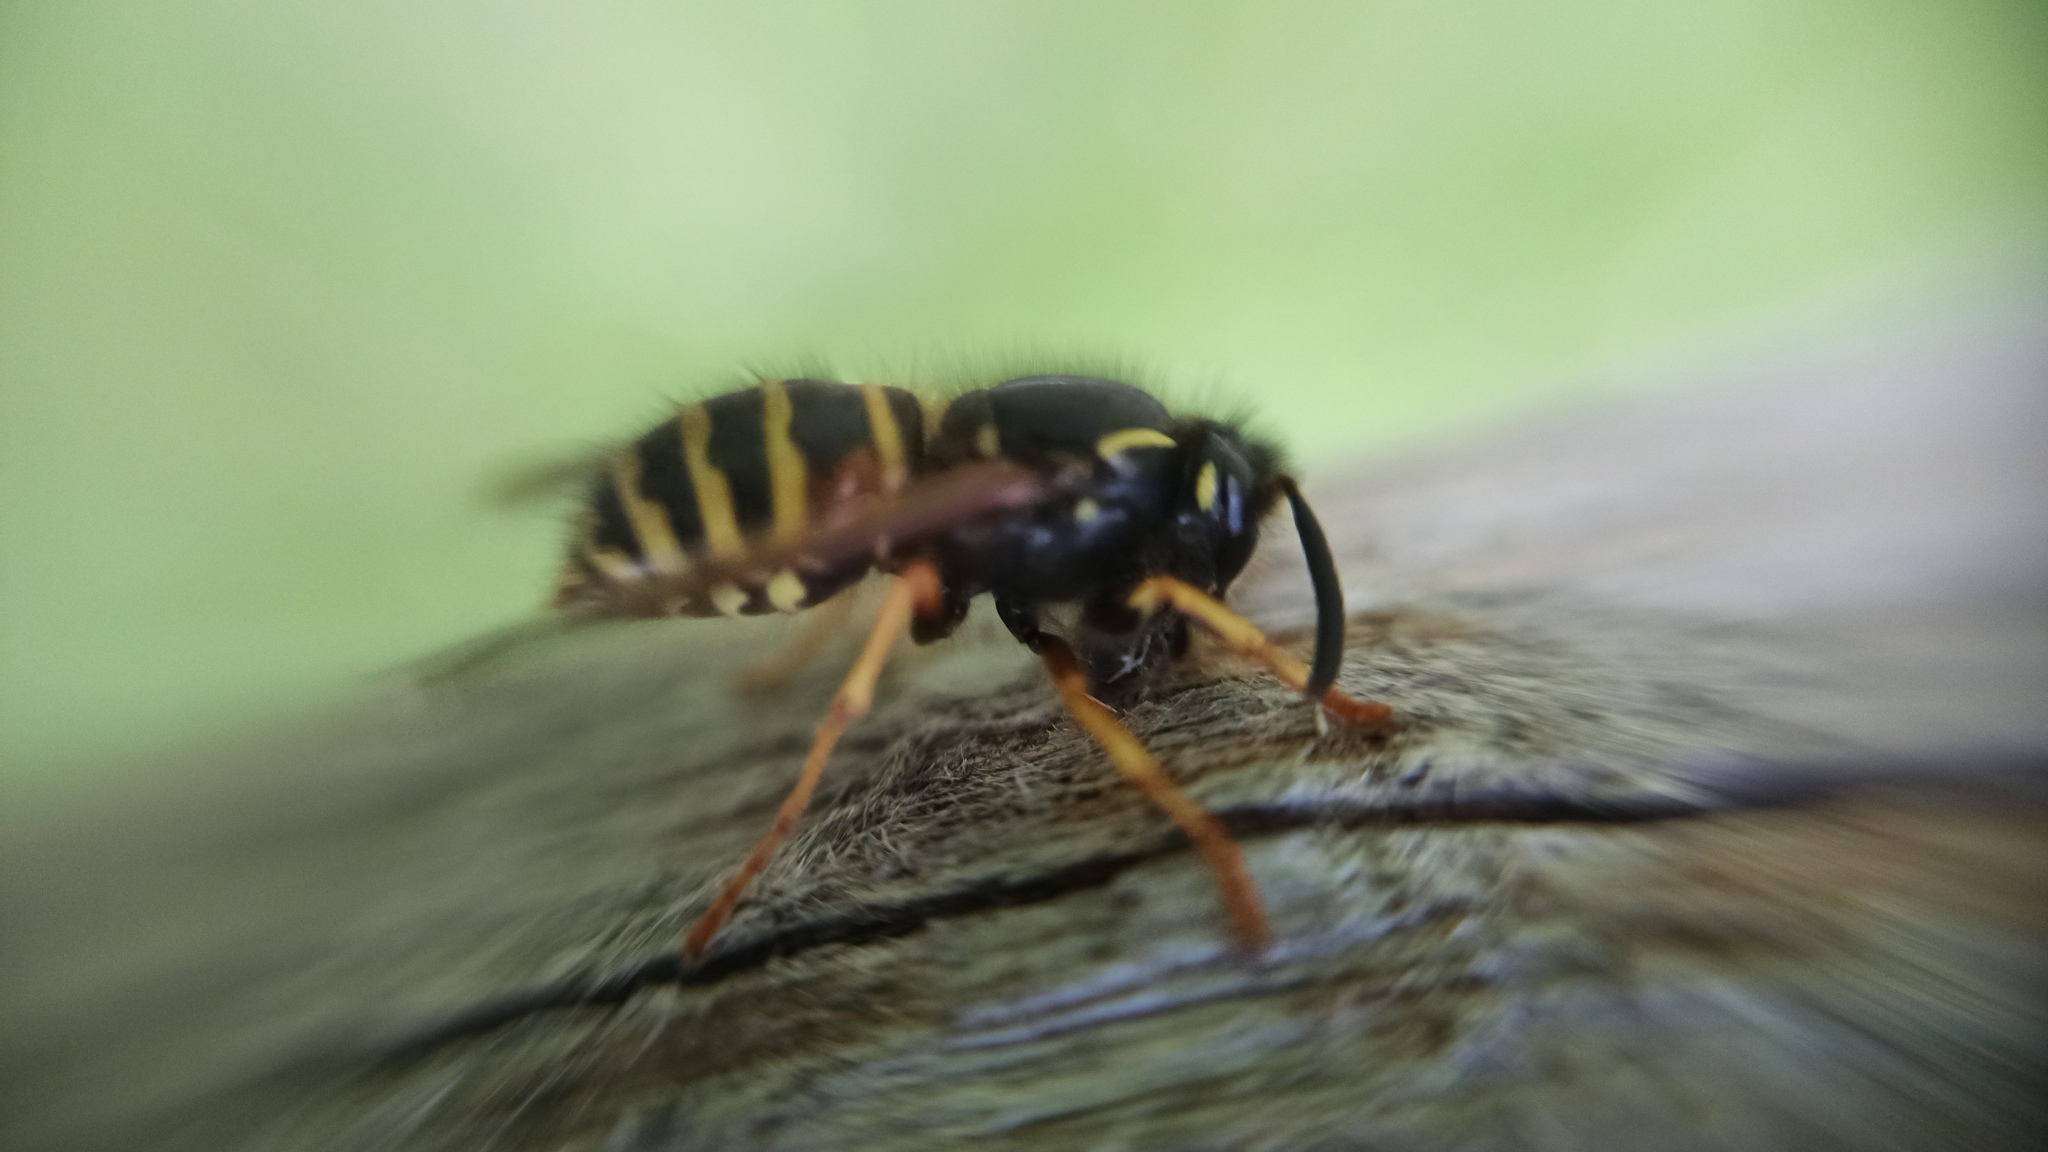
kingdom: Animalia
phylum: Arthropoda
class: Insecta
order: Hymenoptera
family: Vespidae
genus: Dolichovespula
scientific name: Dolichovespula norwegica
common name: Norwegian wasp
